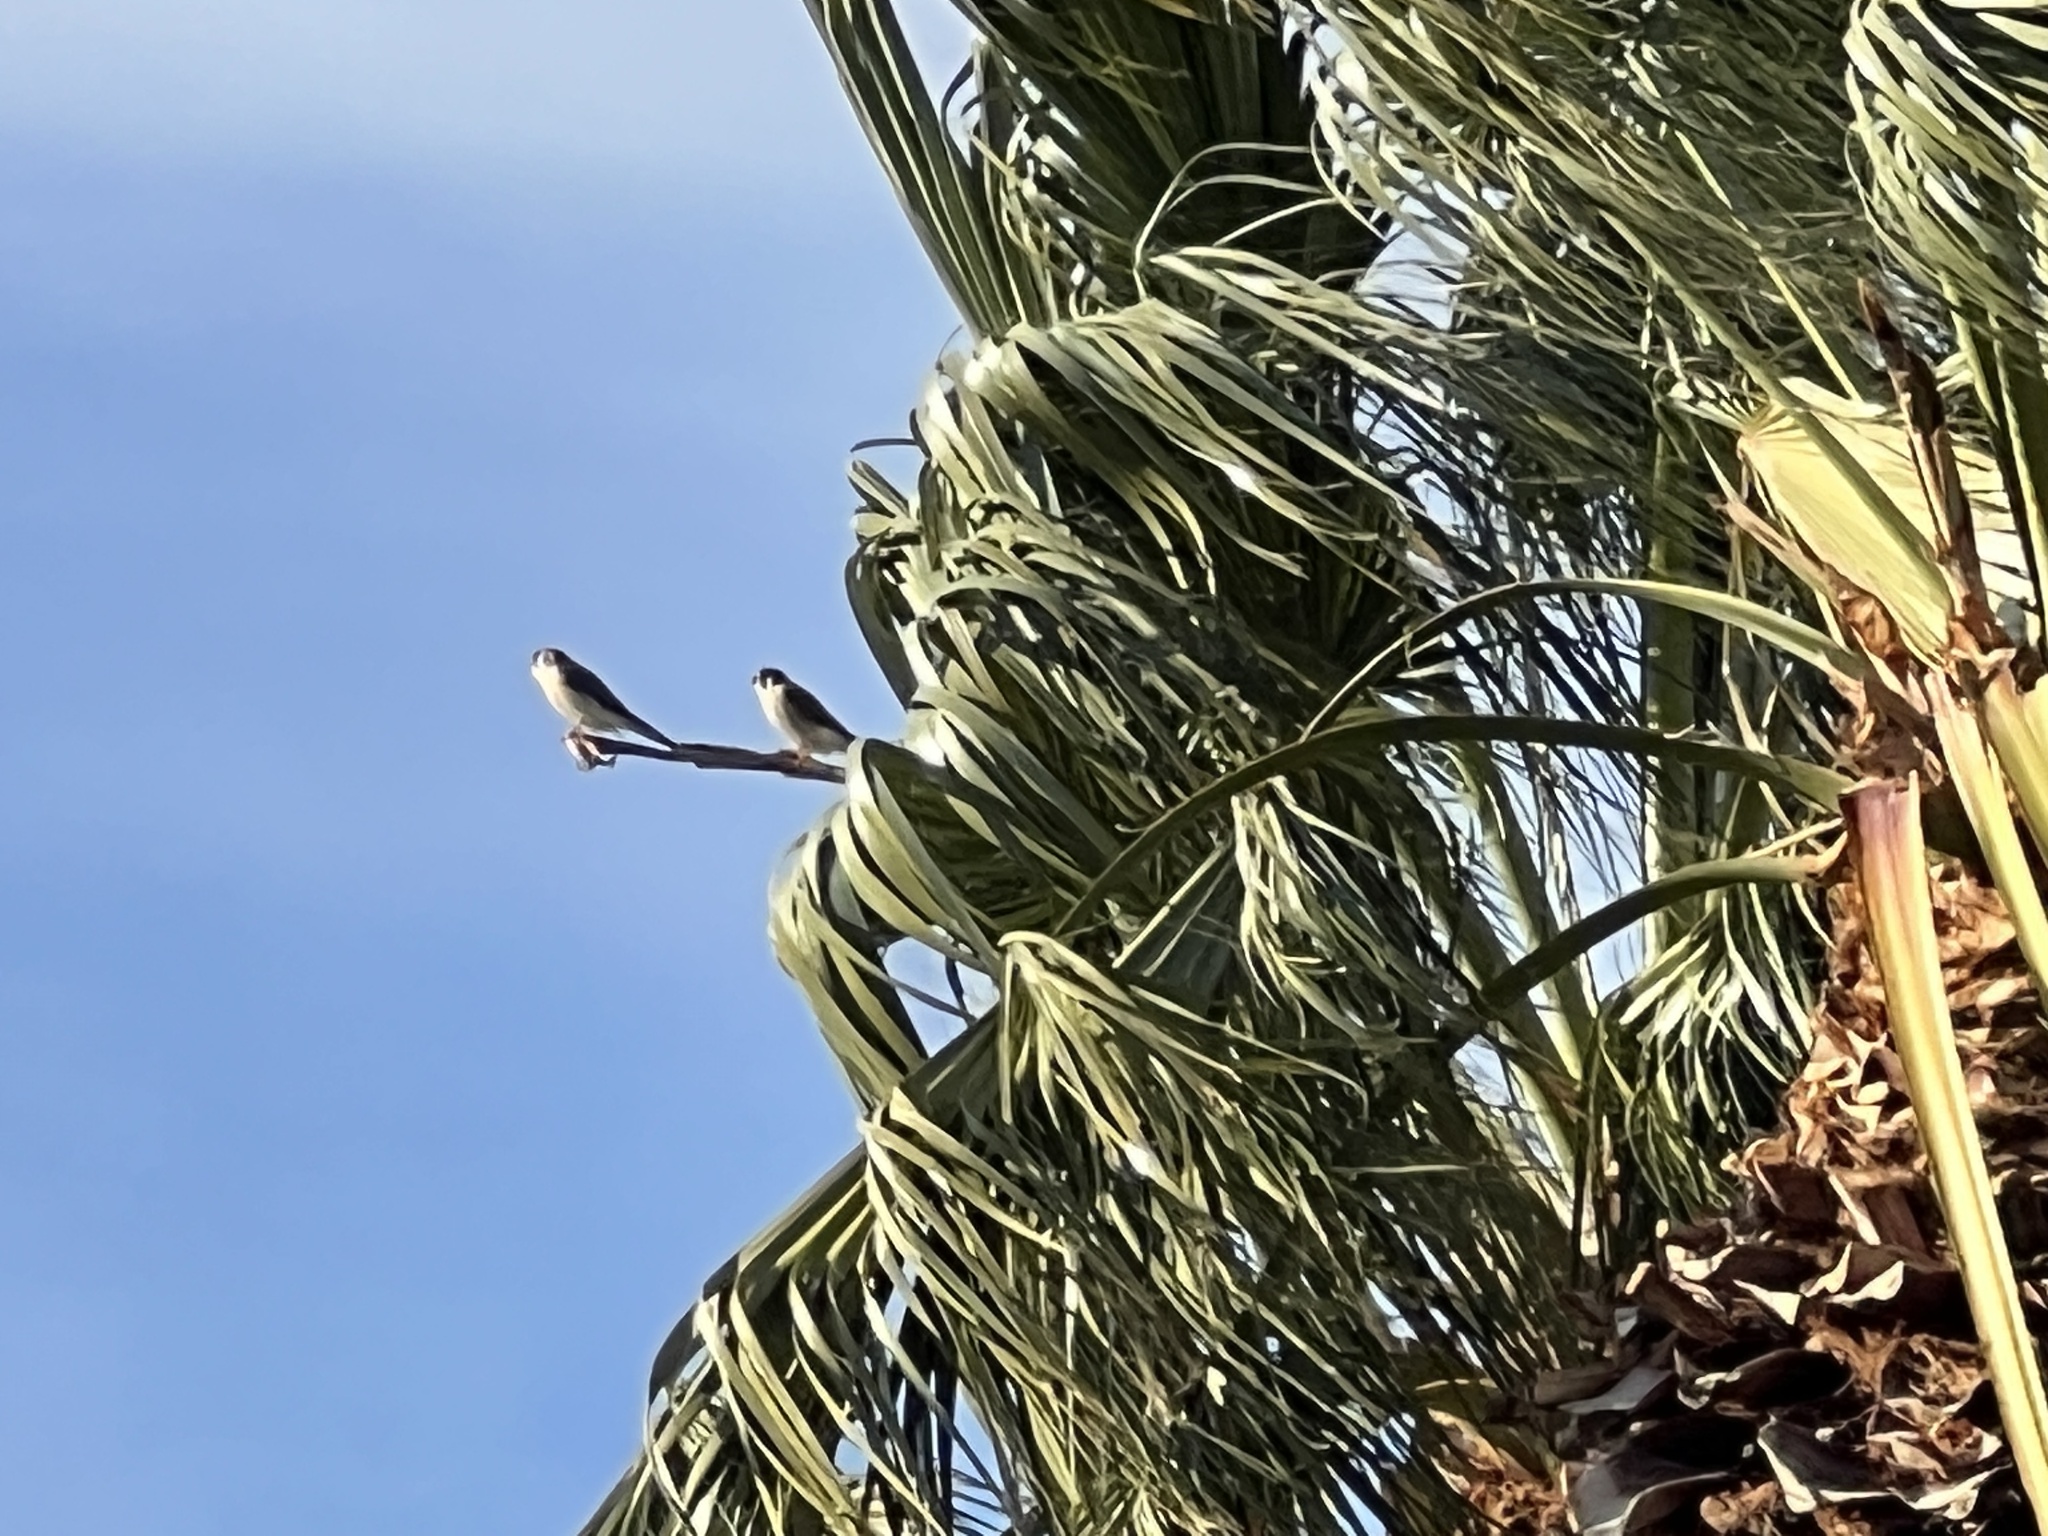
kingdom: Animalia
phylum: Chordata
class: Aves
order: Falconiformes
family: Falconidae
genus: Falco
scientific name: Falco sparverius
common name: American kestrel
